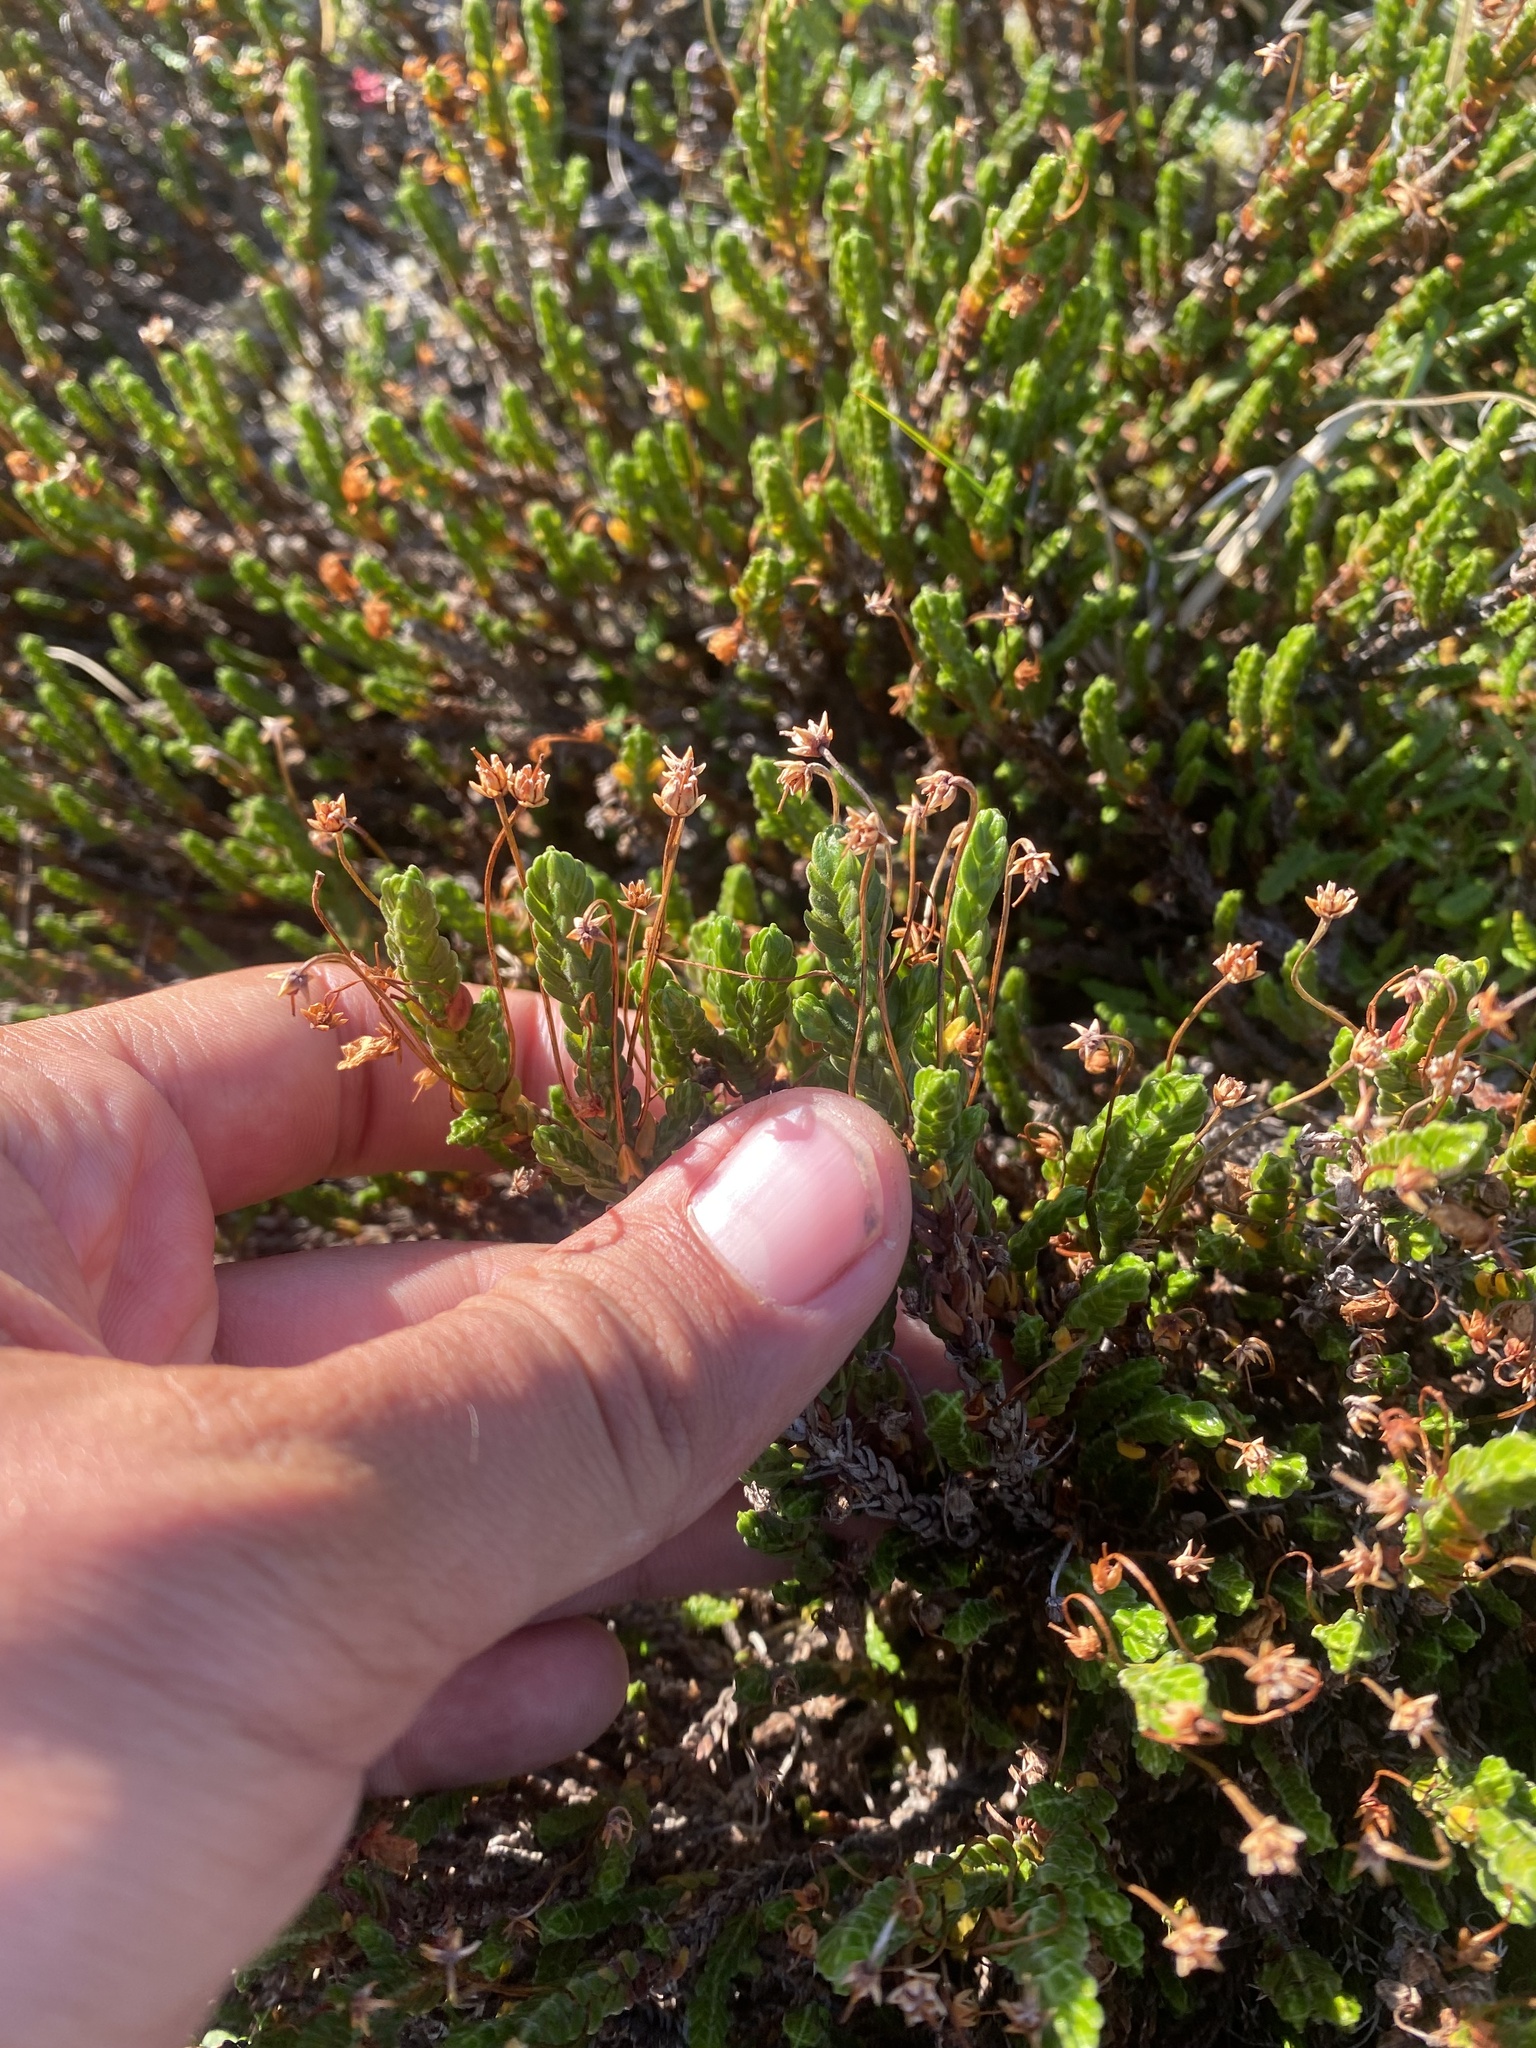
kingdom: Plantae
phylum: Tracheophyta
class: Magnoliopsida
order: Ericales
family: Ericaceae
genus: Cassiope
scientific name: Cassiope tetragona
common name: Arctic bell heather
